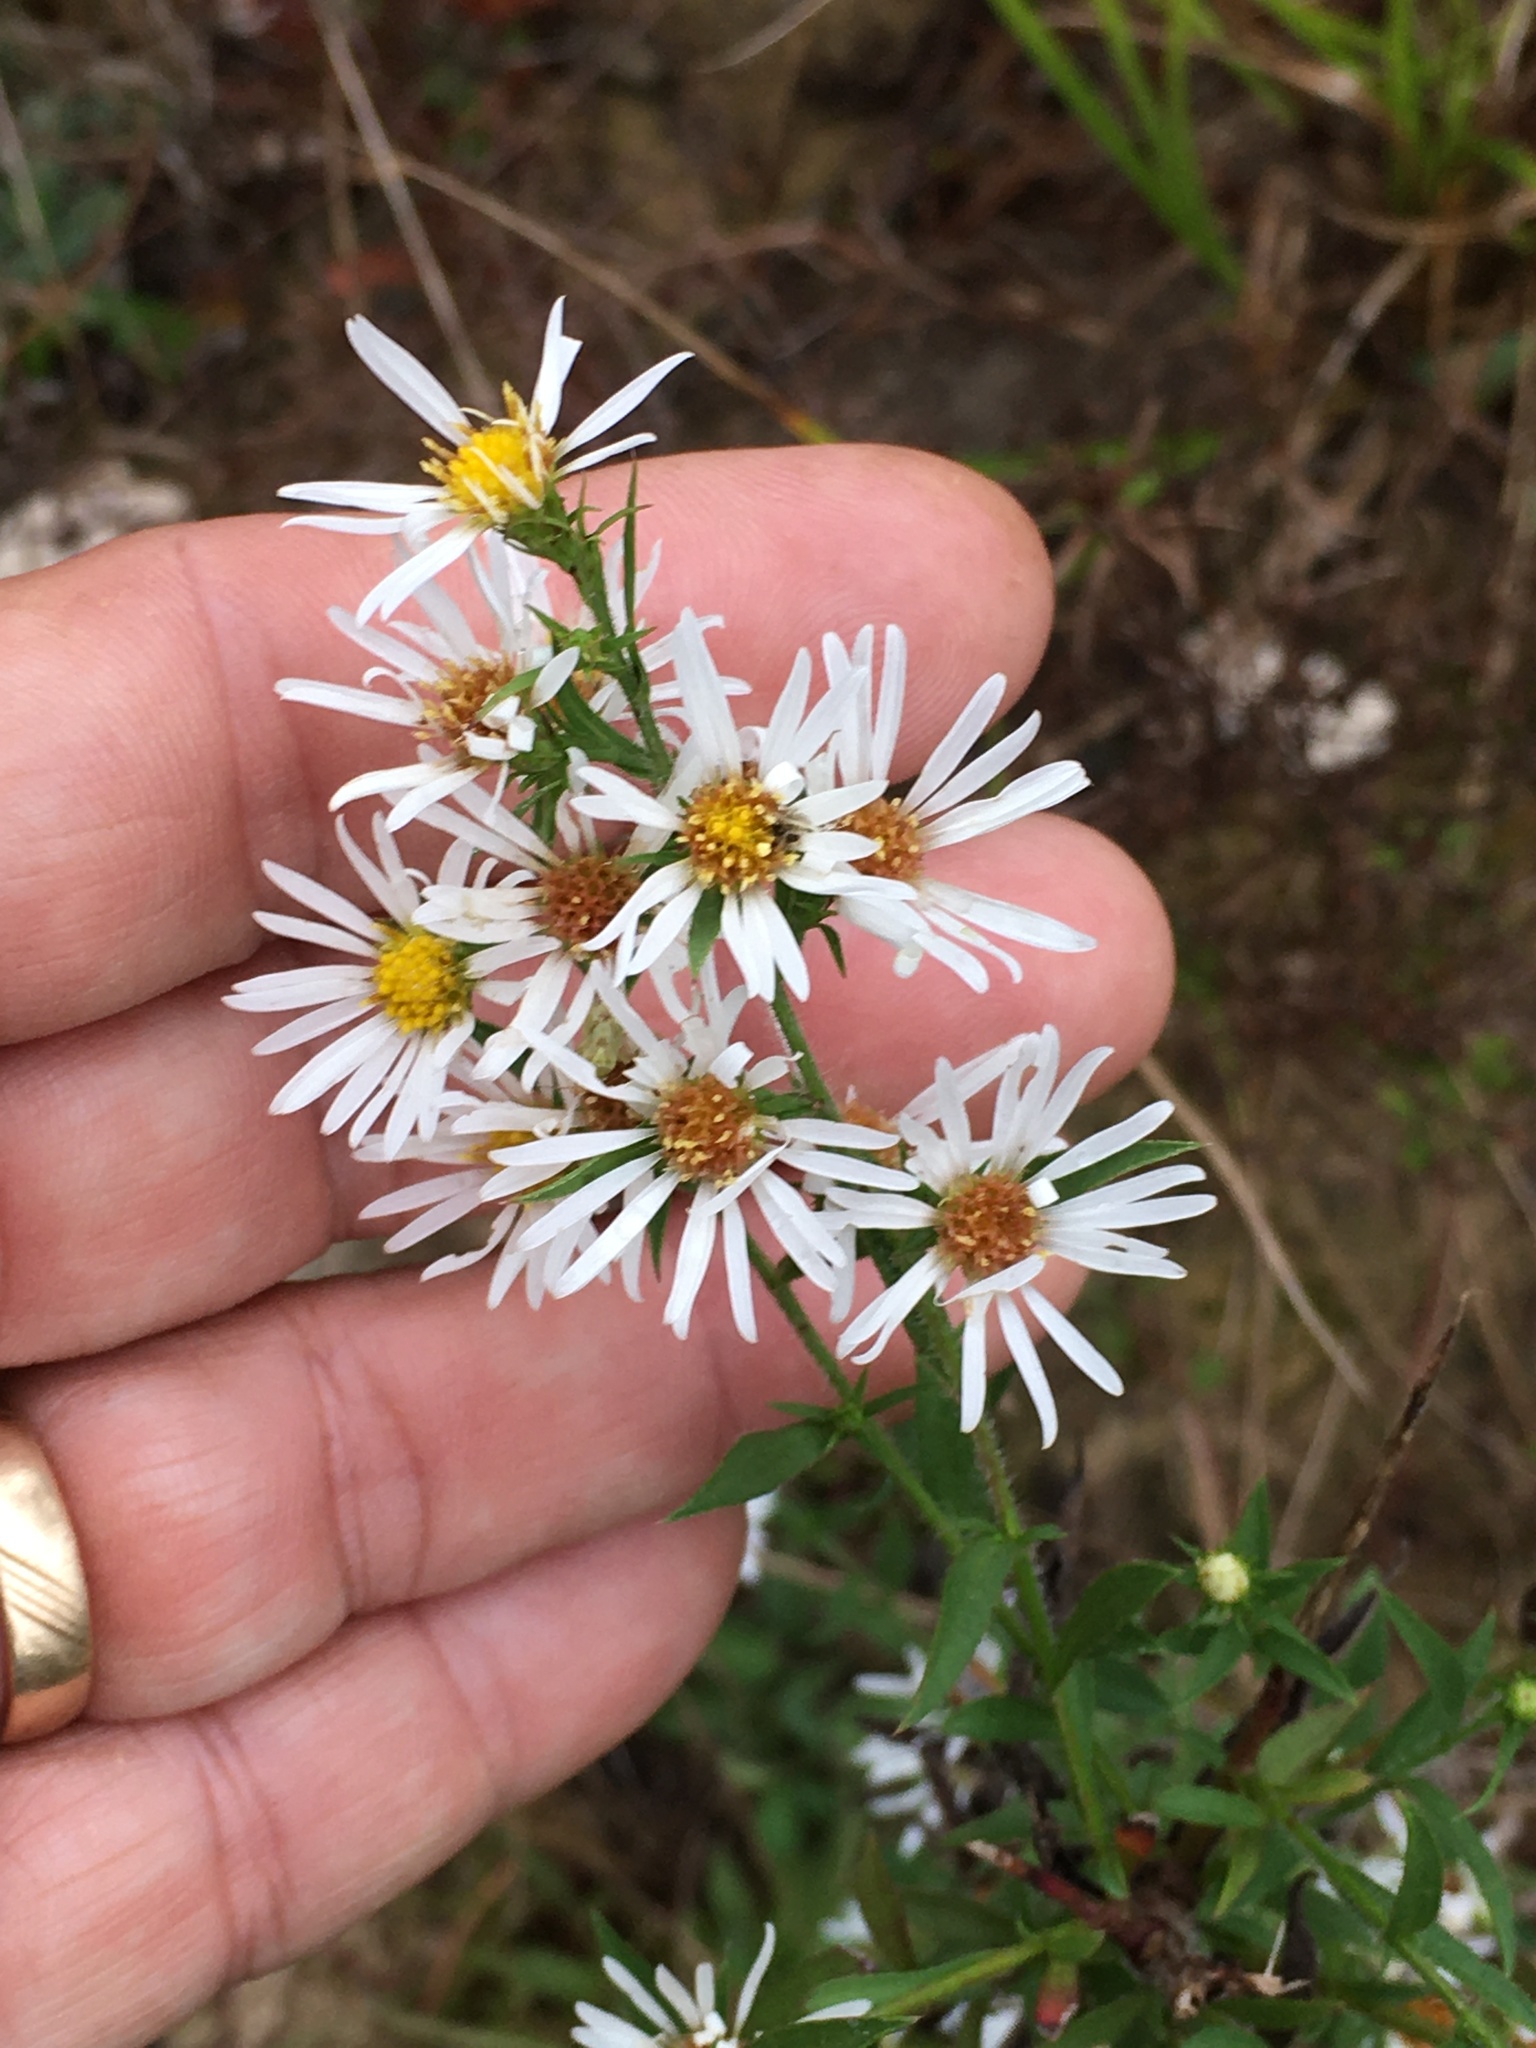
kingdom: Plantae
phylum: Tracheophyta
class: Magnoliopsida
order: Asterales
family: Asteraceae
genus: Symphyotrichum
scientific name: Symphyotrichum pilosum
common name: Awl aster
